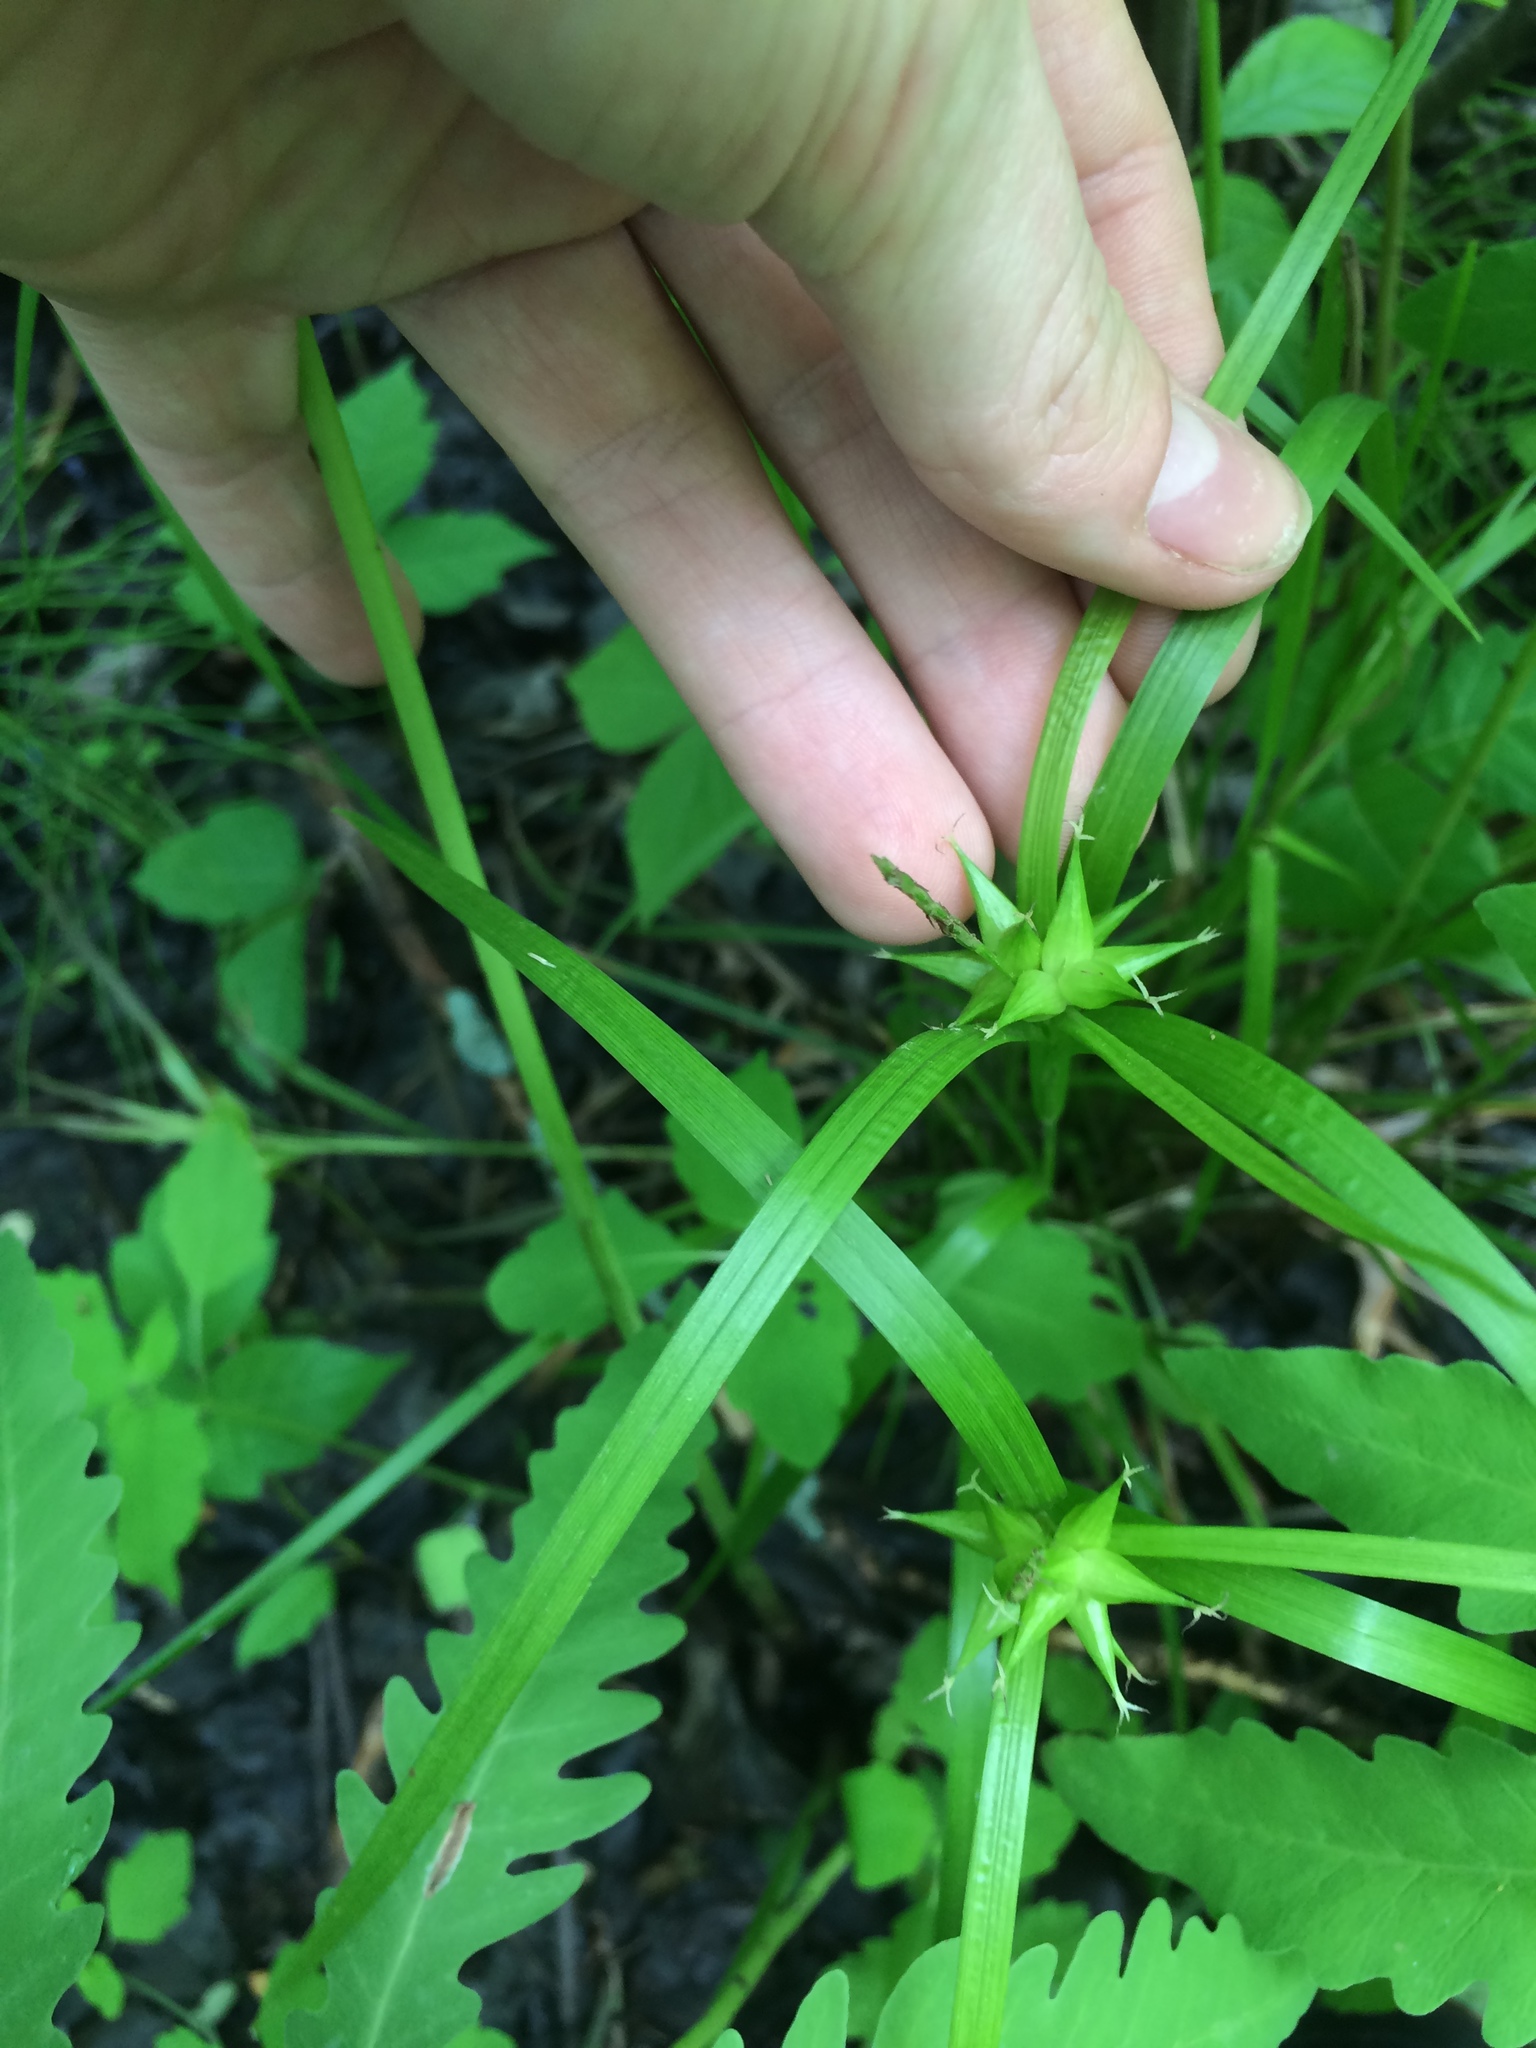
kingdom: Plantae
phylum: Tracheophyta
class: Liliopsida
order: Poales
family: Cyperaceae
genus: Carex
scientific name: Carex intumescens
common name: Greater bladder sedge
